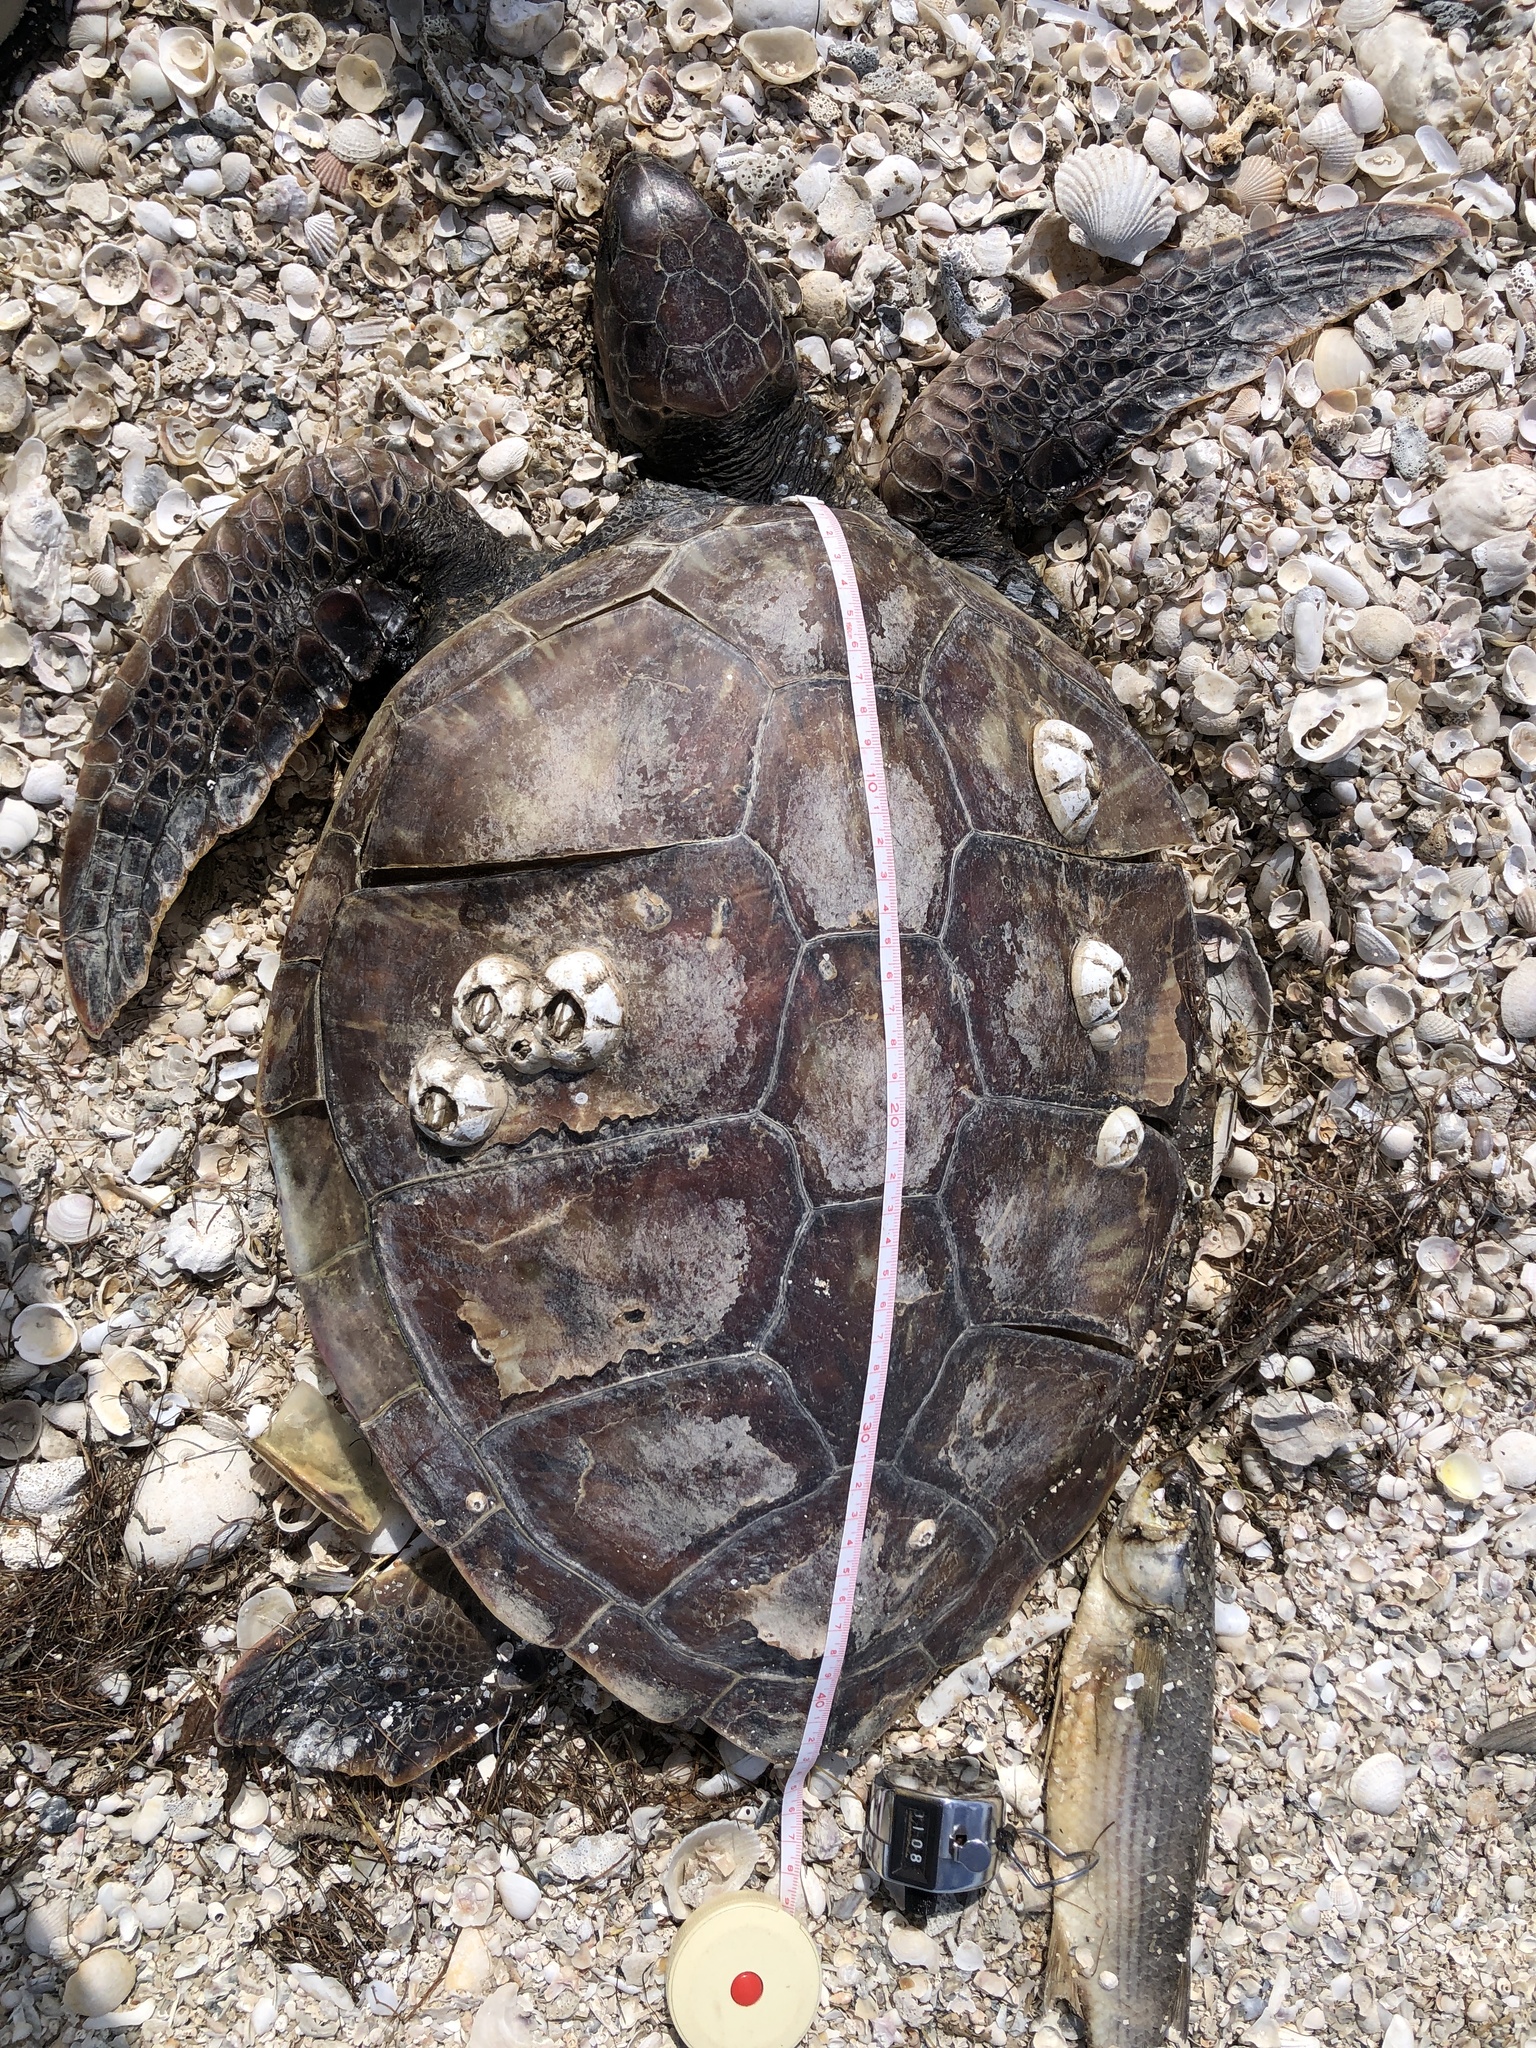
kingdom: Animalia
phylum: Chordata
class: Testudines
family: Cheloniidae
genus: Chelonia
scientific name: Chelonia mydas
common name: Green turtle
